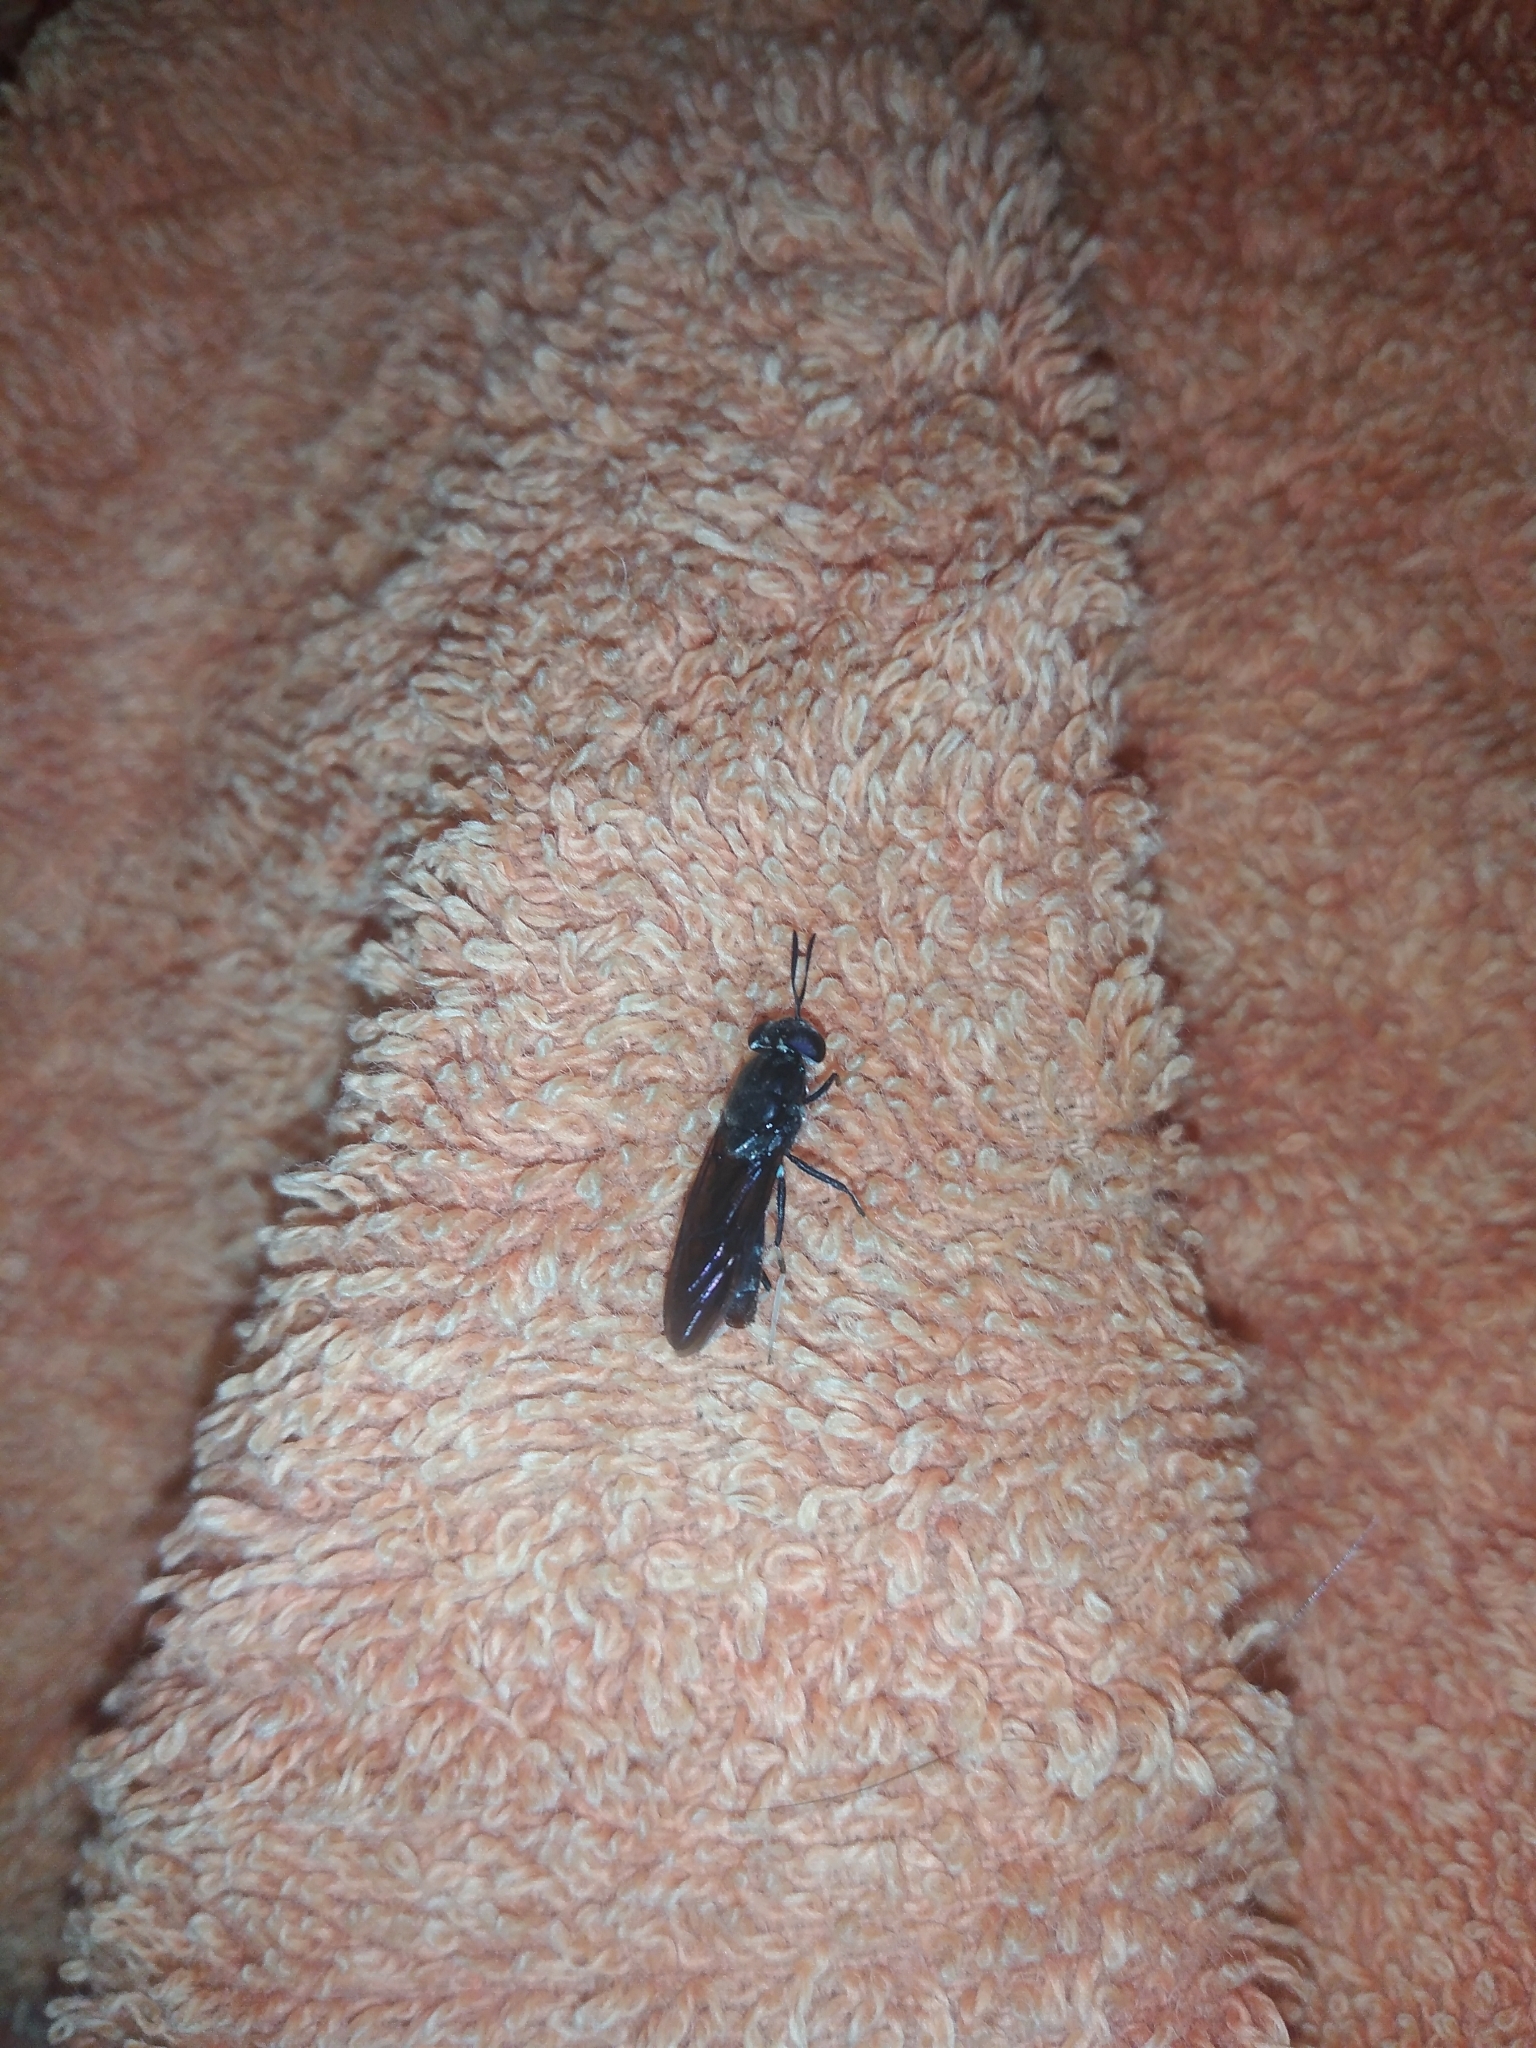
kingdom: Animalia
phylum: Arthropoda
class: Insecta
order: Diptera
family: Stratiomyidae
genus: Hermetia
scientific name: Hermetia illucens
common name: Black soldier fly
